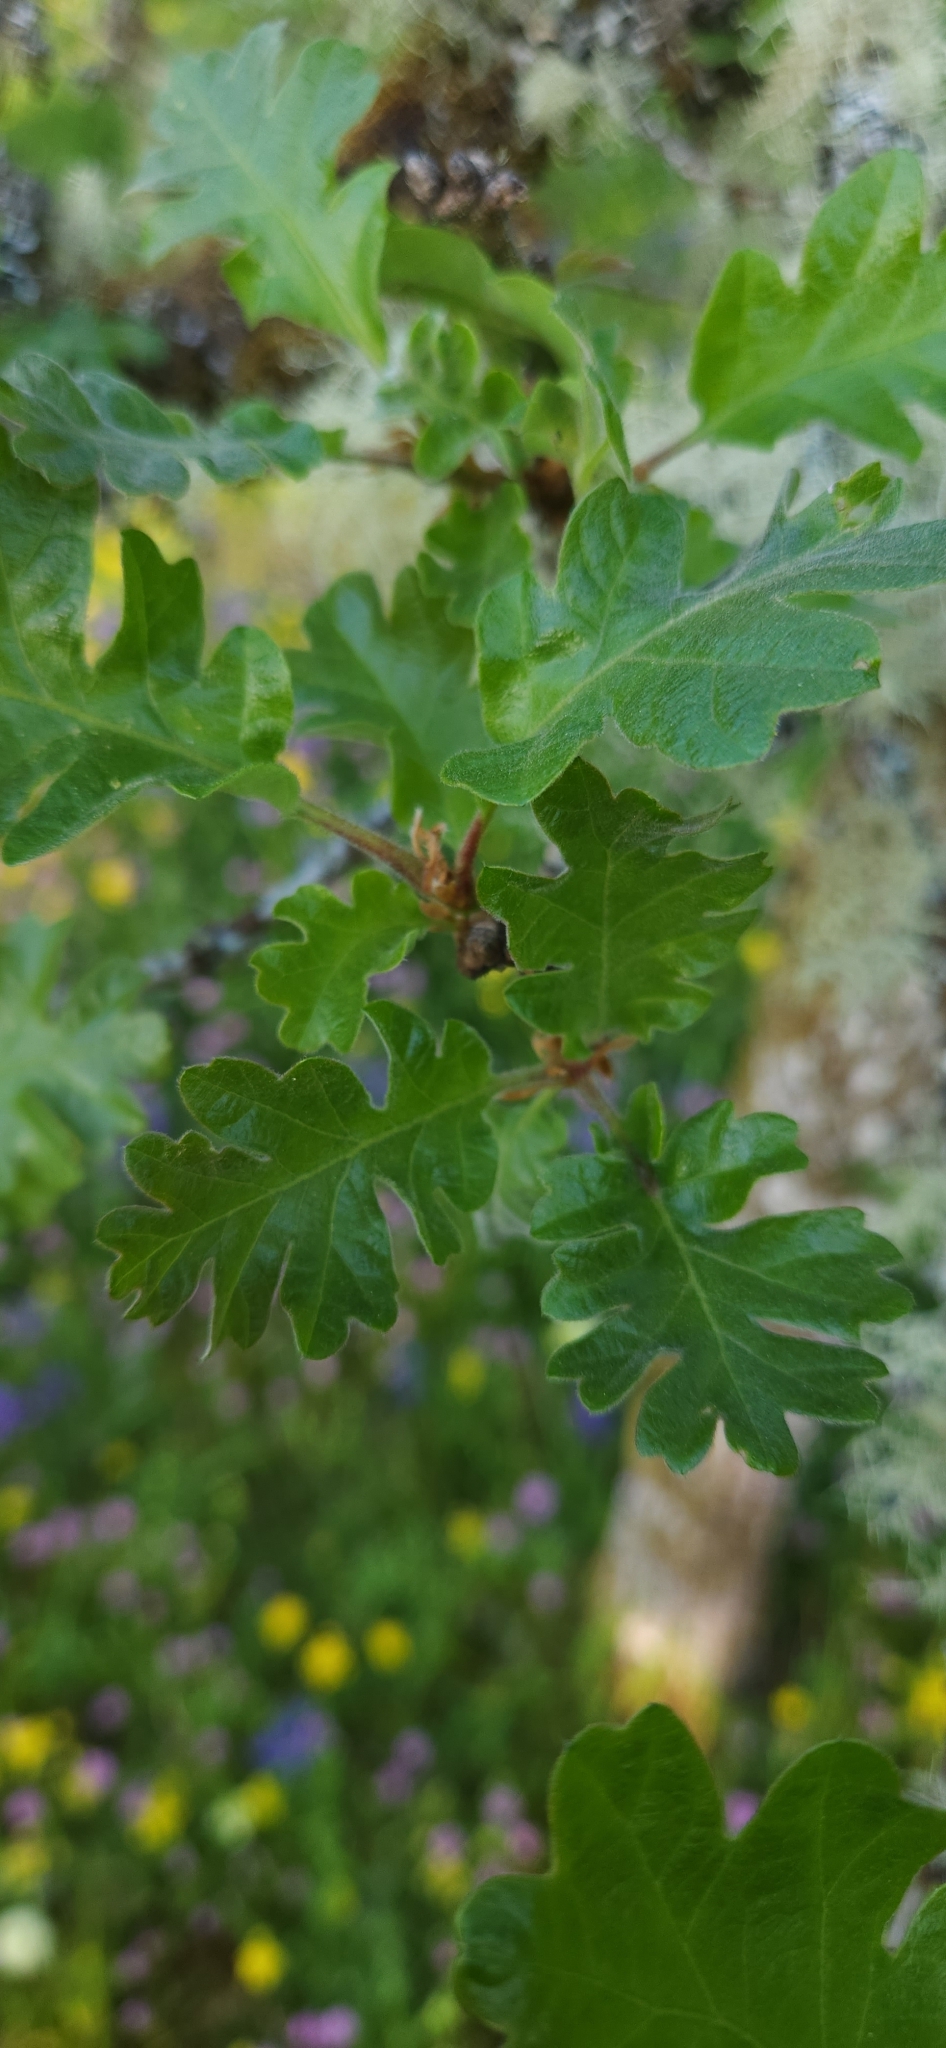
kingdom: Plantae
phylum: Tracheophyta
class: Magnoliopsida
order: Fagales
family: Fagaceae
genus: Quercus
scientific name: Quercus garryana
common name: Garry oak
